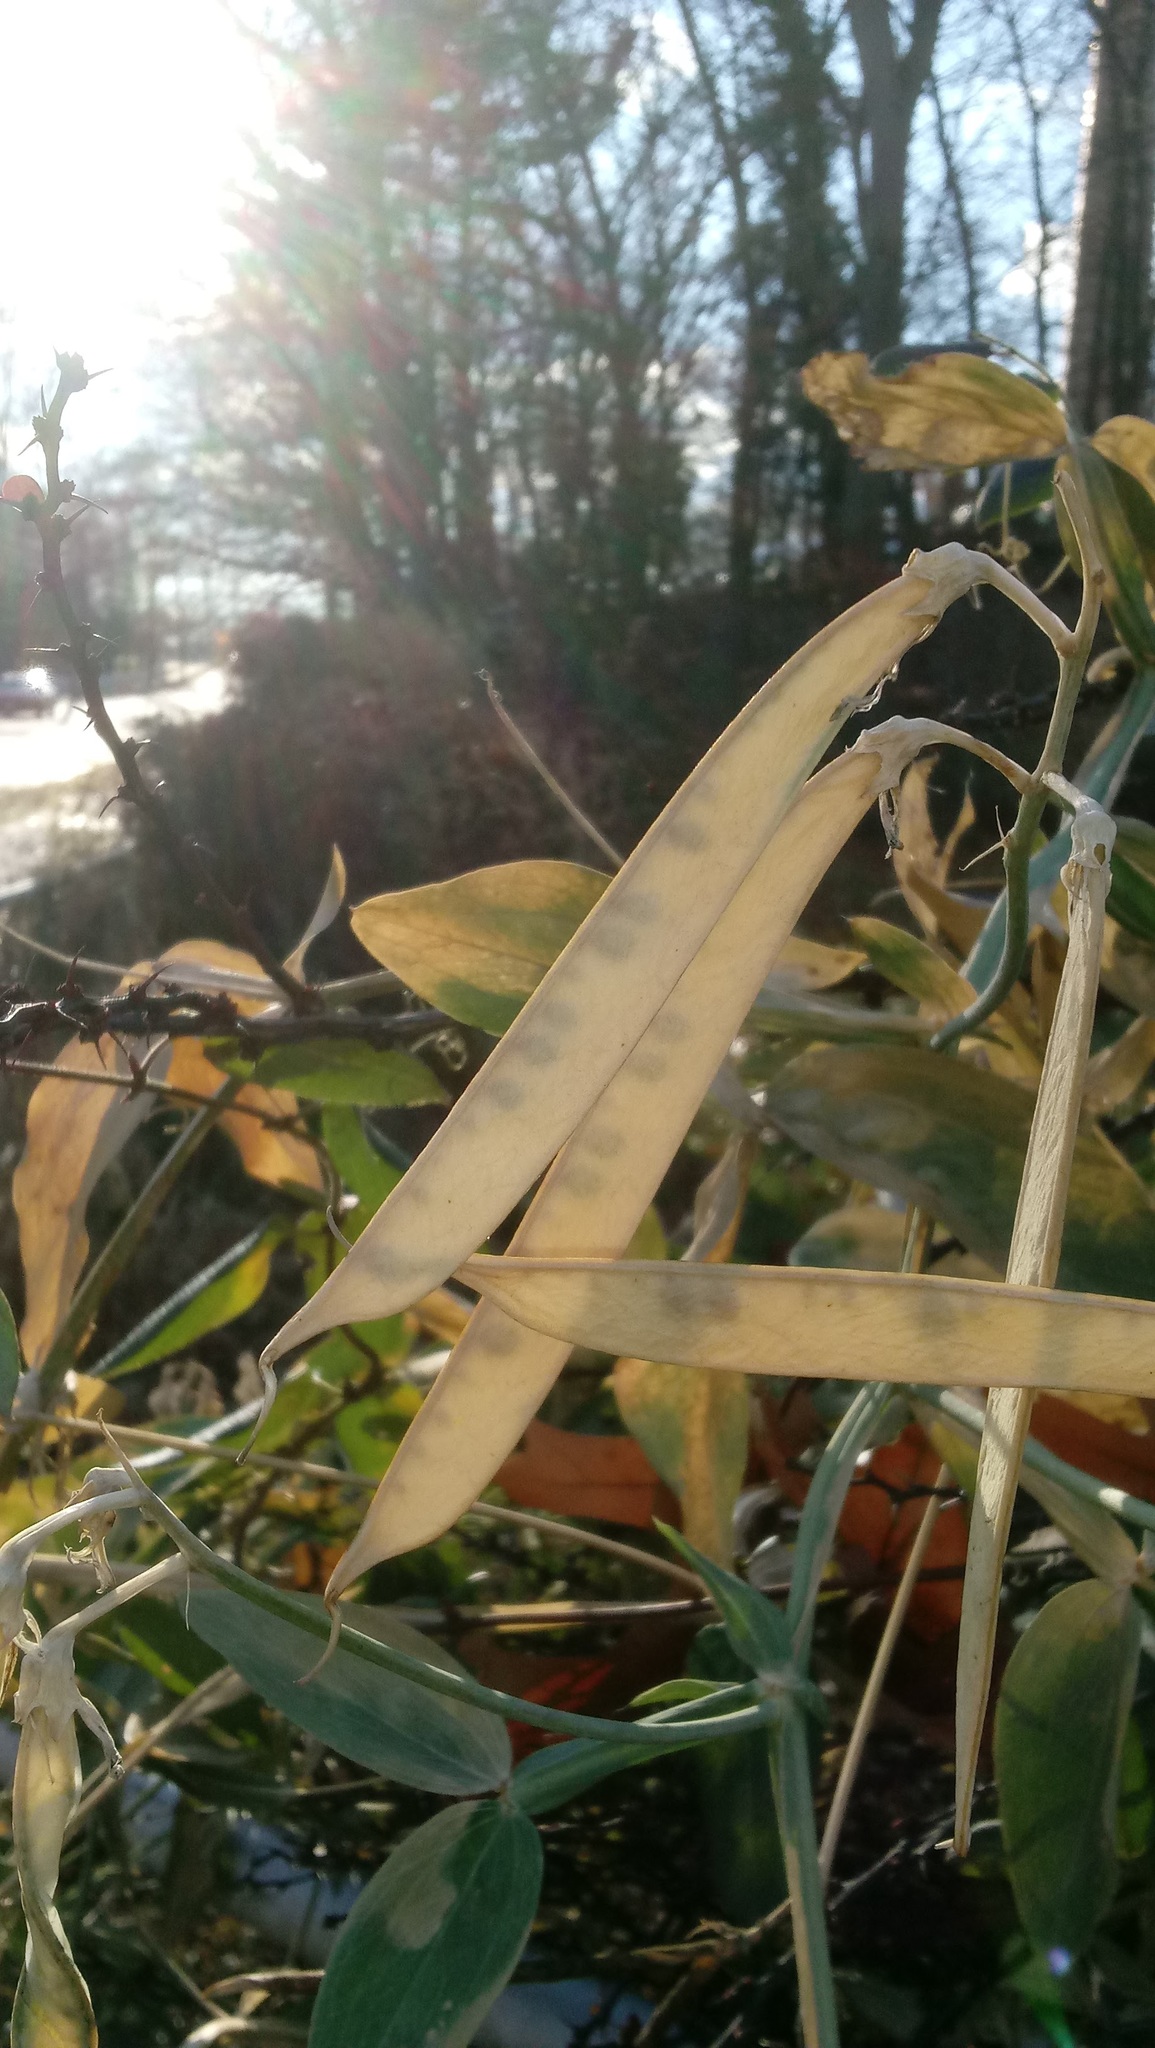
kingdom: Plantae
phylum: Tracheophyta
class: Magnoliopsida
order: Fabales
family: Fabaceae
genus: Lathyrus
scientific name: Lathyrus latifolius
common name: Perennial pea
